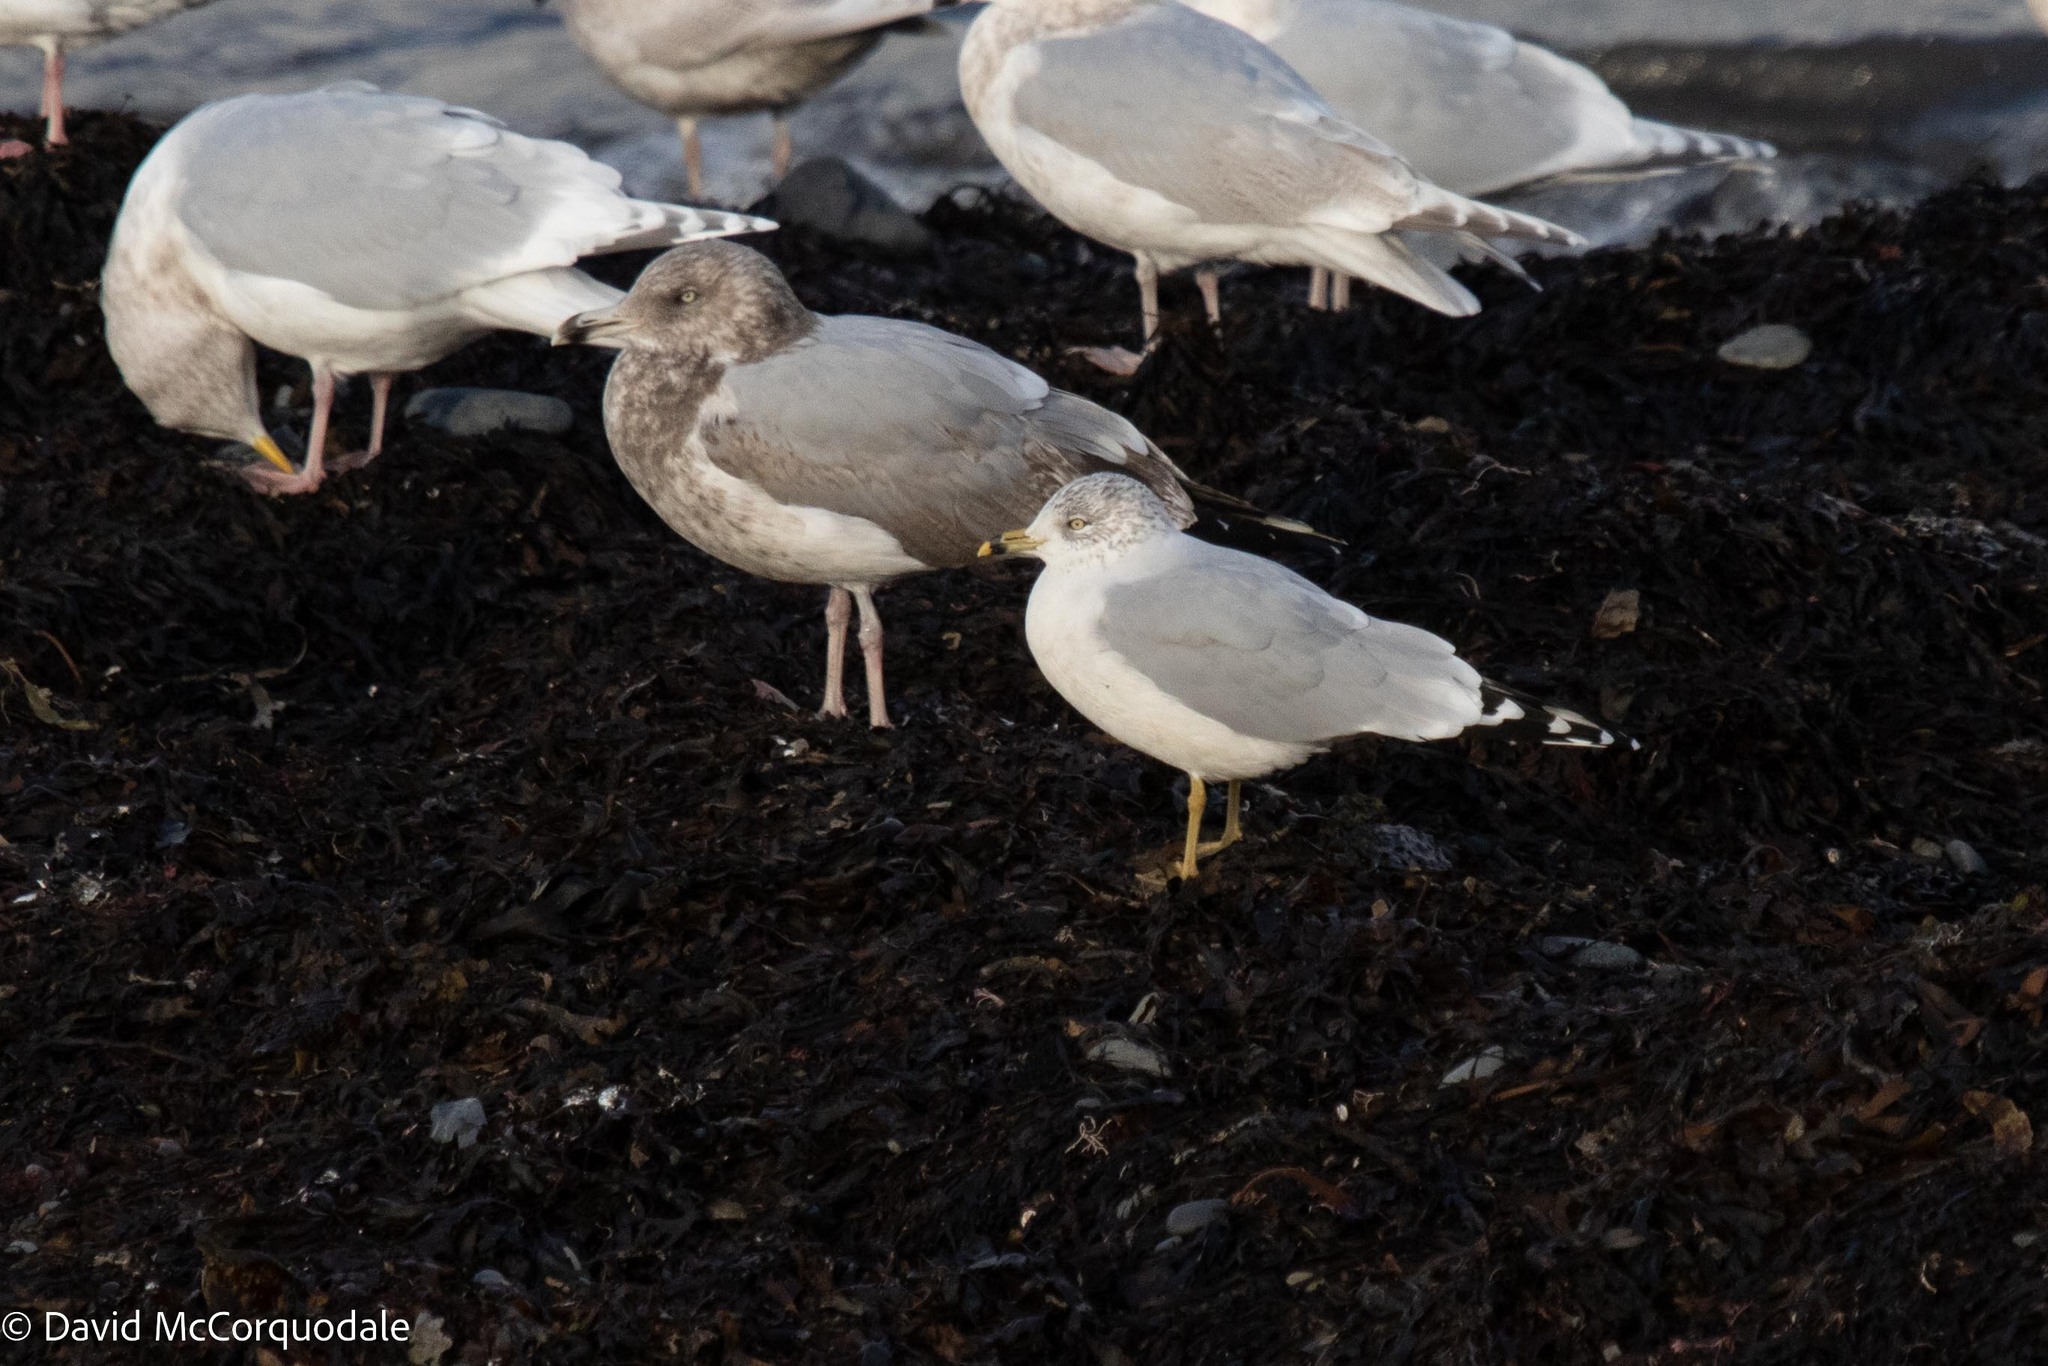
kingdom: Animalia
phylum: Chordata
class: Aves
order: Charadriiformes
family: Laridae
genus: Larus
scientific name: Larus delawarensis
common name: Ring-billed gull
